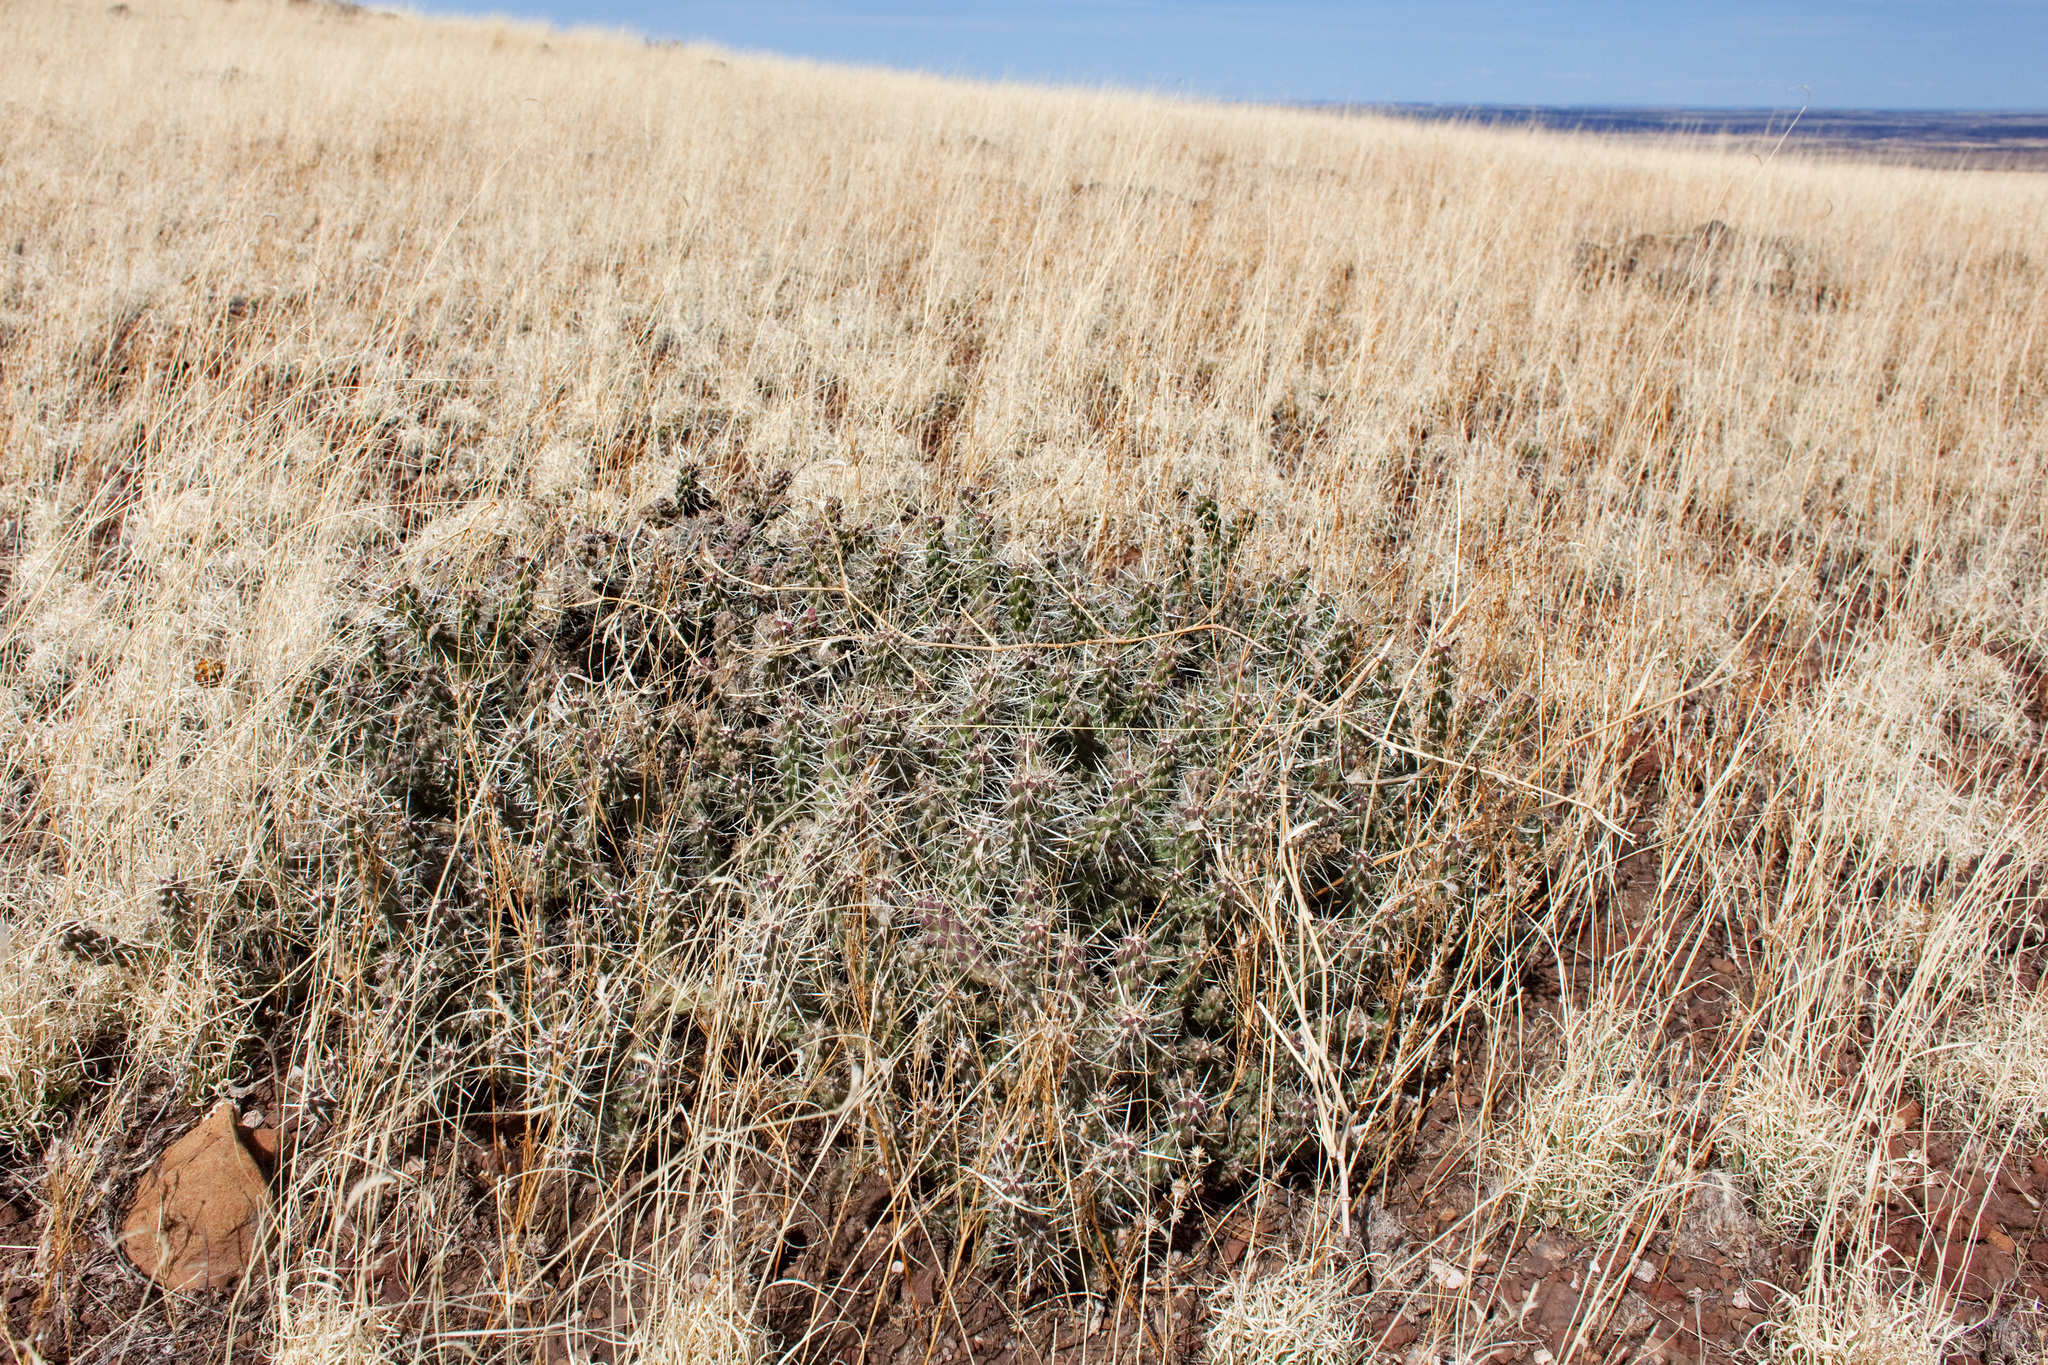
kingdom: Plantae
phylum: Tracheophyta
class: Magnoliopsida
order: Caryophyllales
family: Cactaceae
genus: Cylindropuntia
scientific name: Cylindropuntia whipplei
